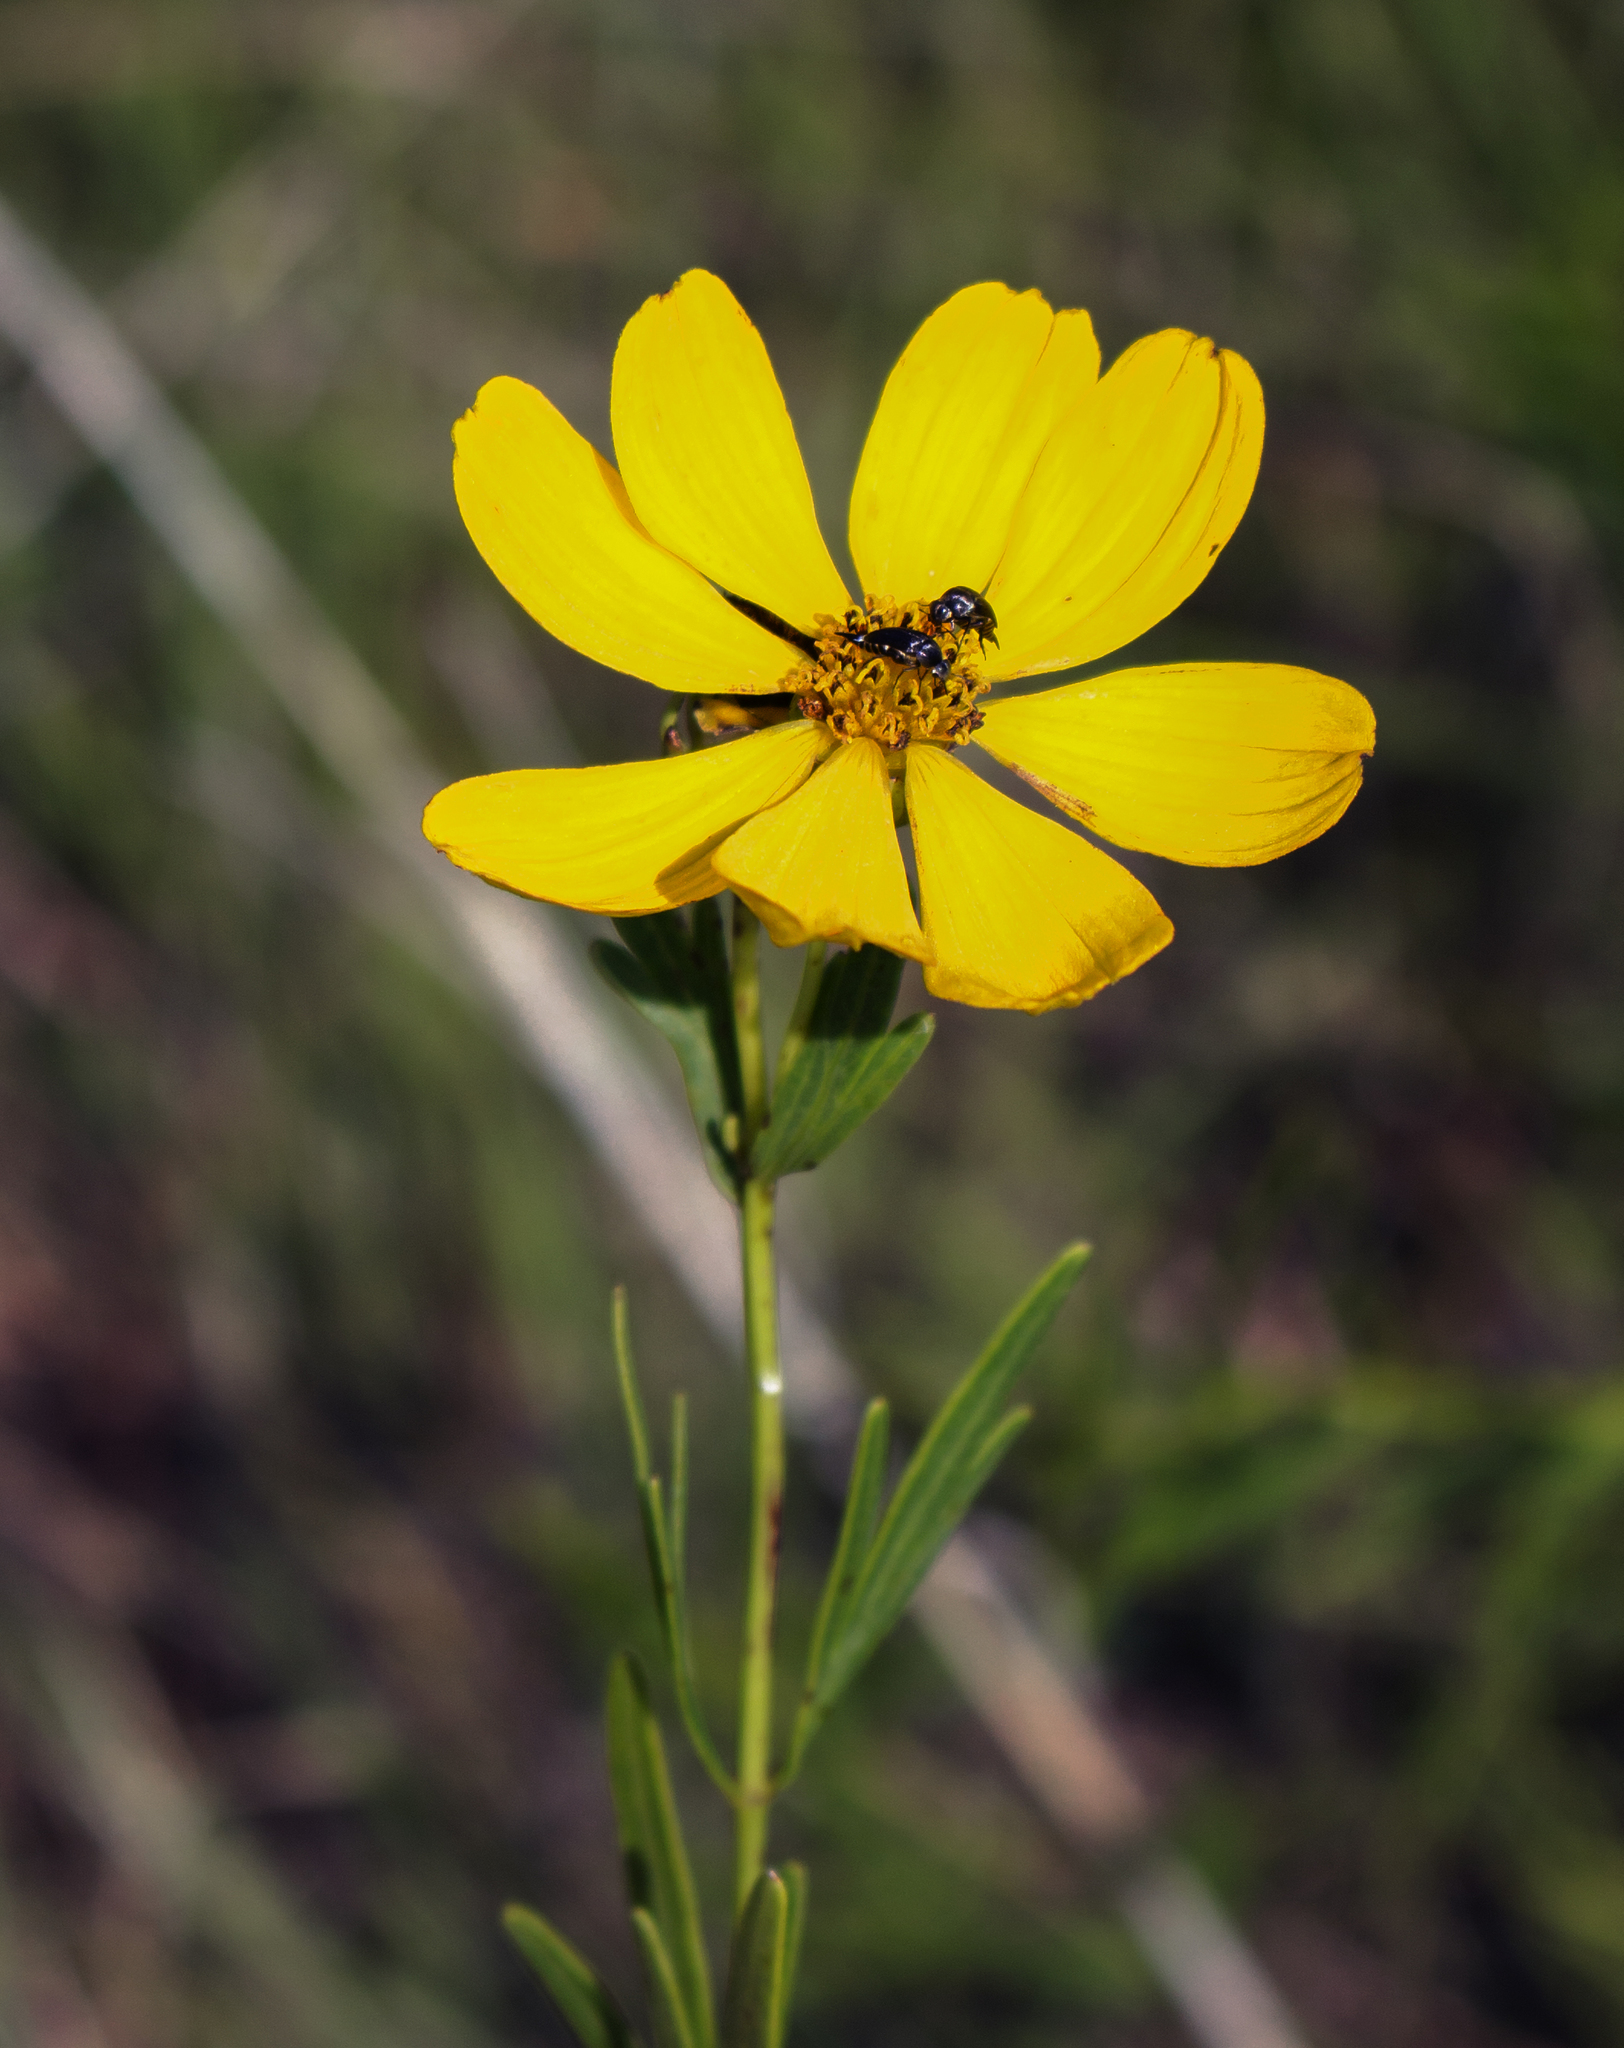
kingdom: Plantae
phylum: Tracheophyta
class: Magnoliopsida
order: Asterales
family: Asteraceae
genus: Coreopsis
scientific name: Coreopsis palmata
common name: Prairie coreopsis
